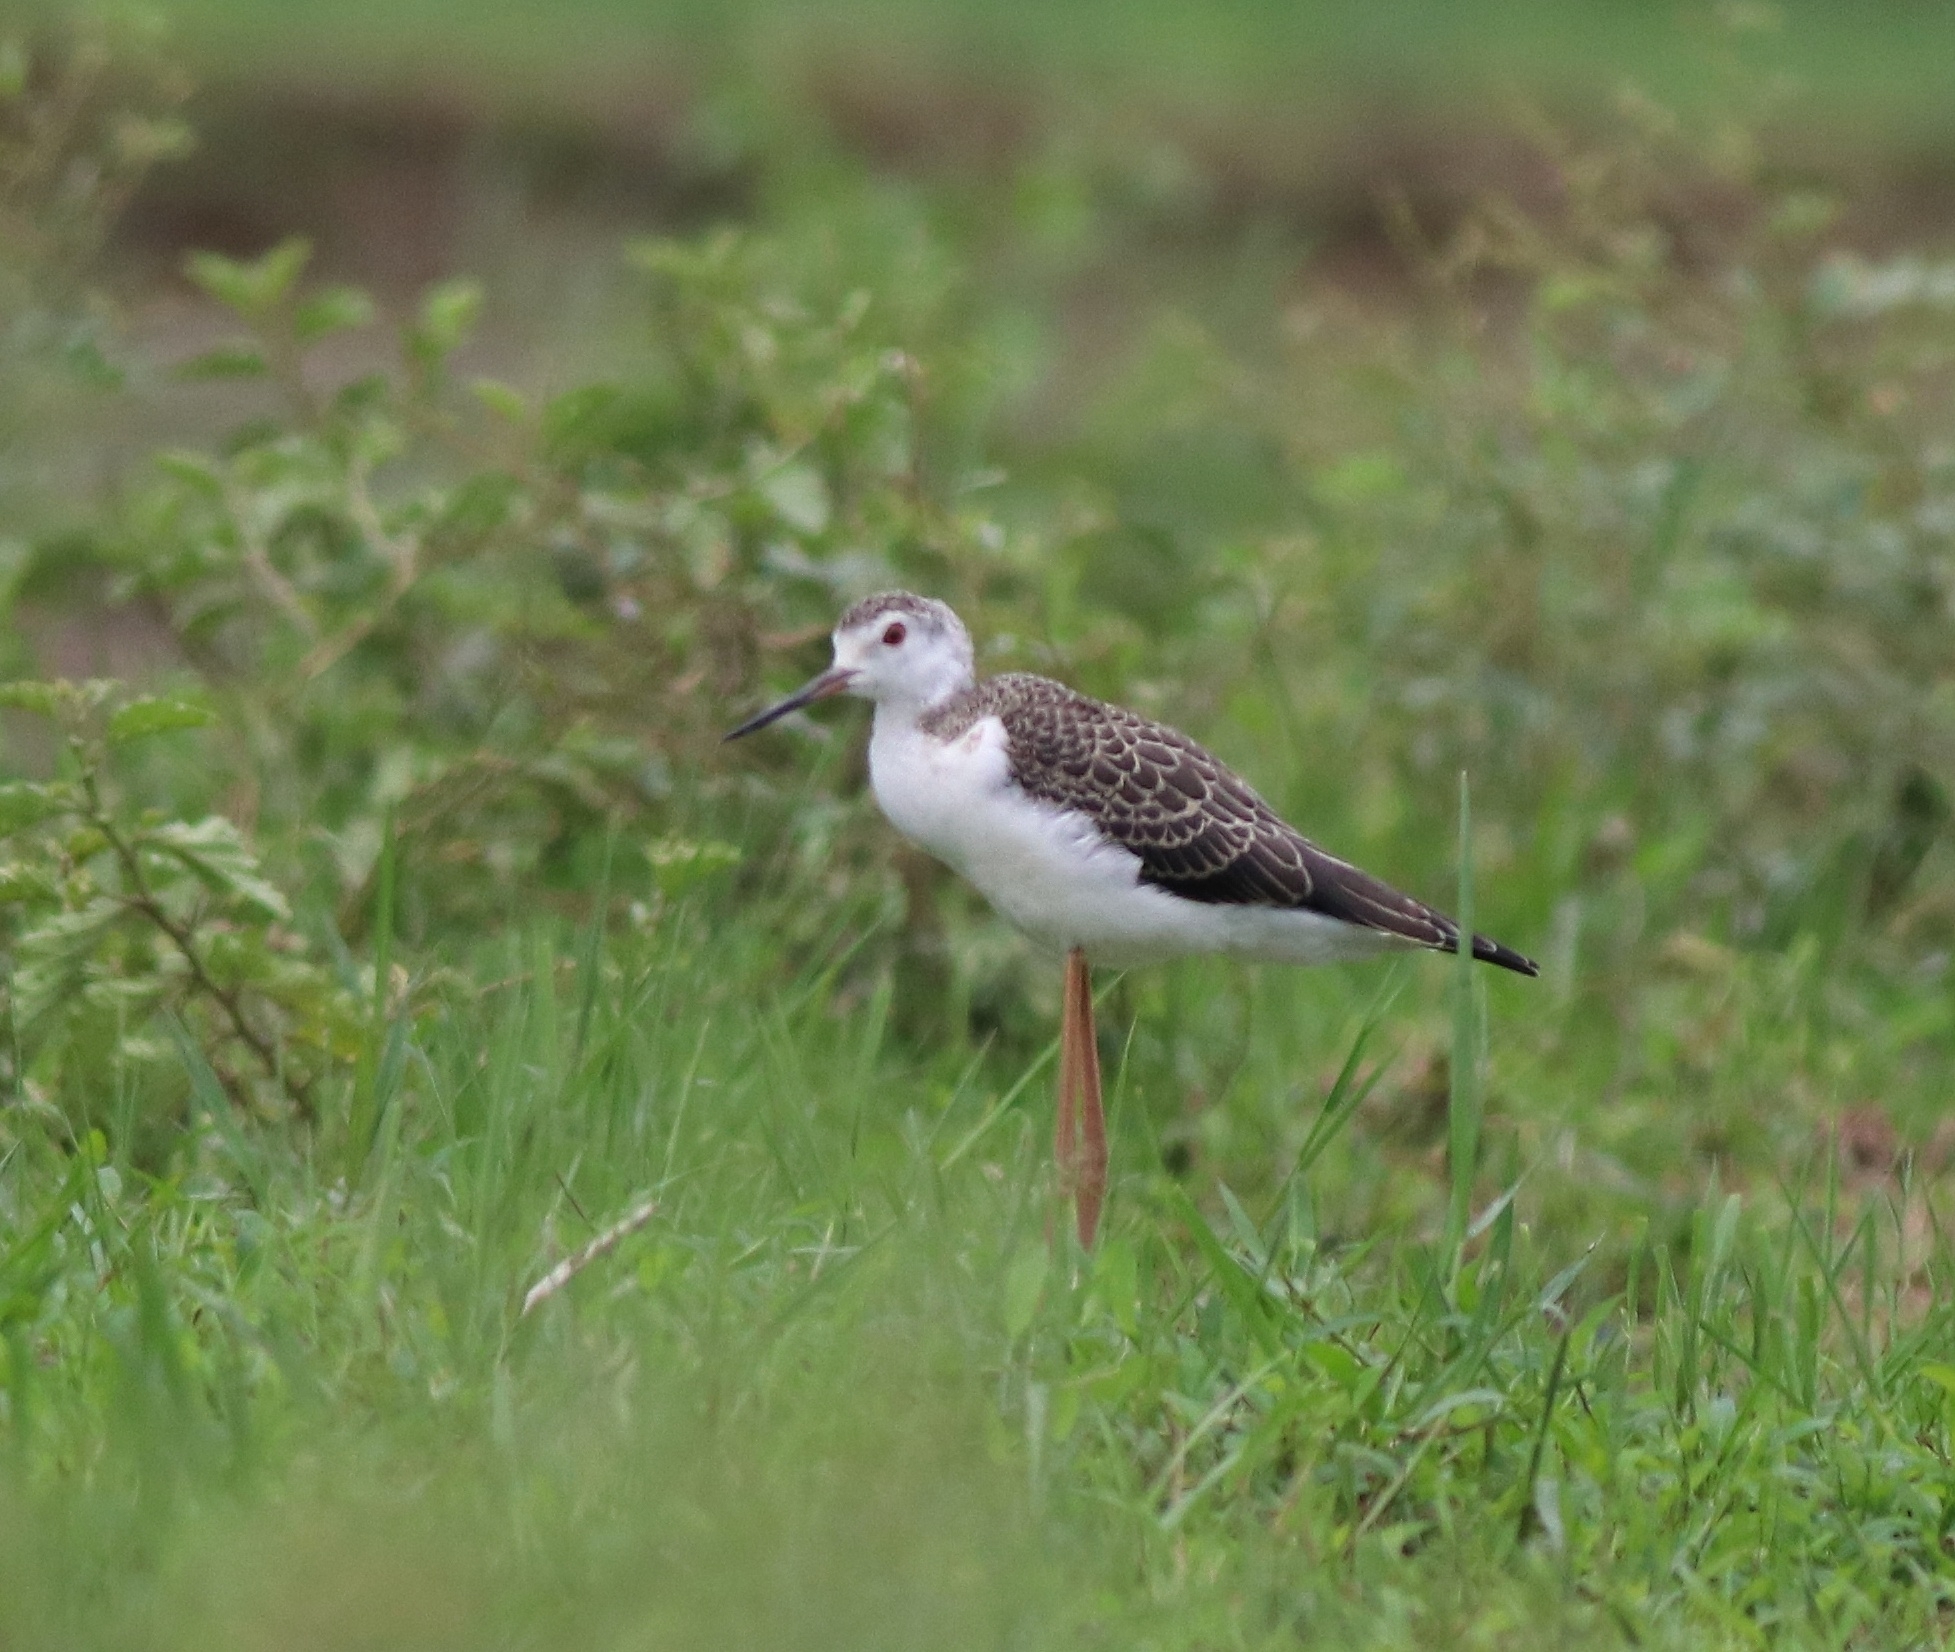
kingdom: Animalia
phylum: Chordata
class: Aves
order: Charadriiformes
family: Recurvirostridae
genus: Himantopus
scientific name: Himantopus himantopus
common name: Black-winged stilt
